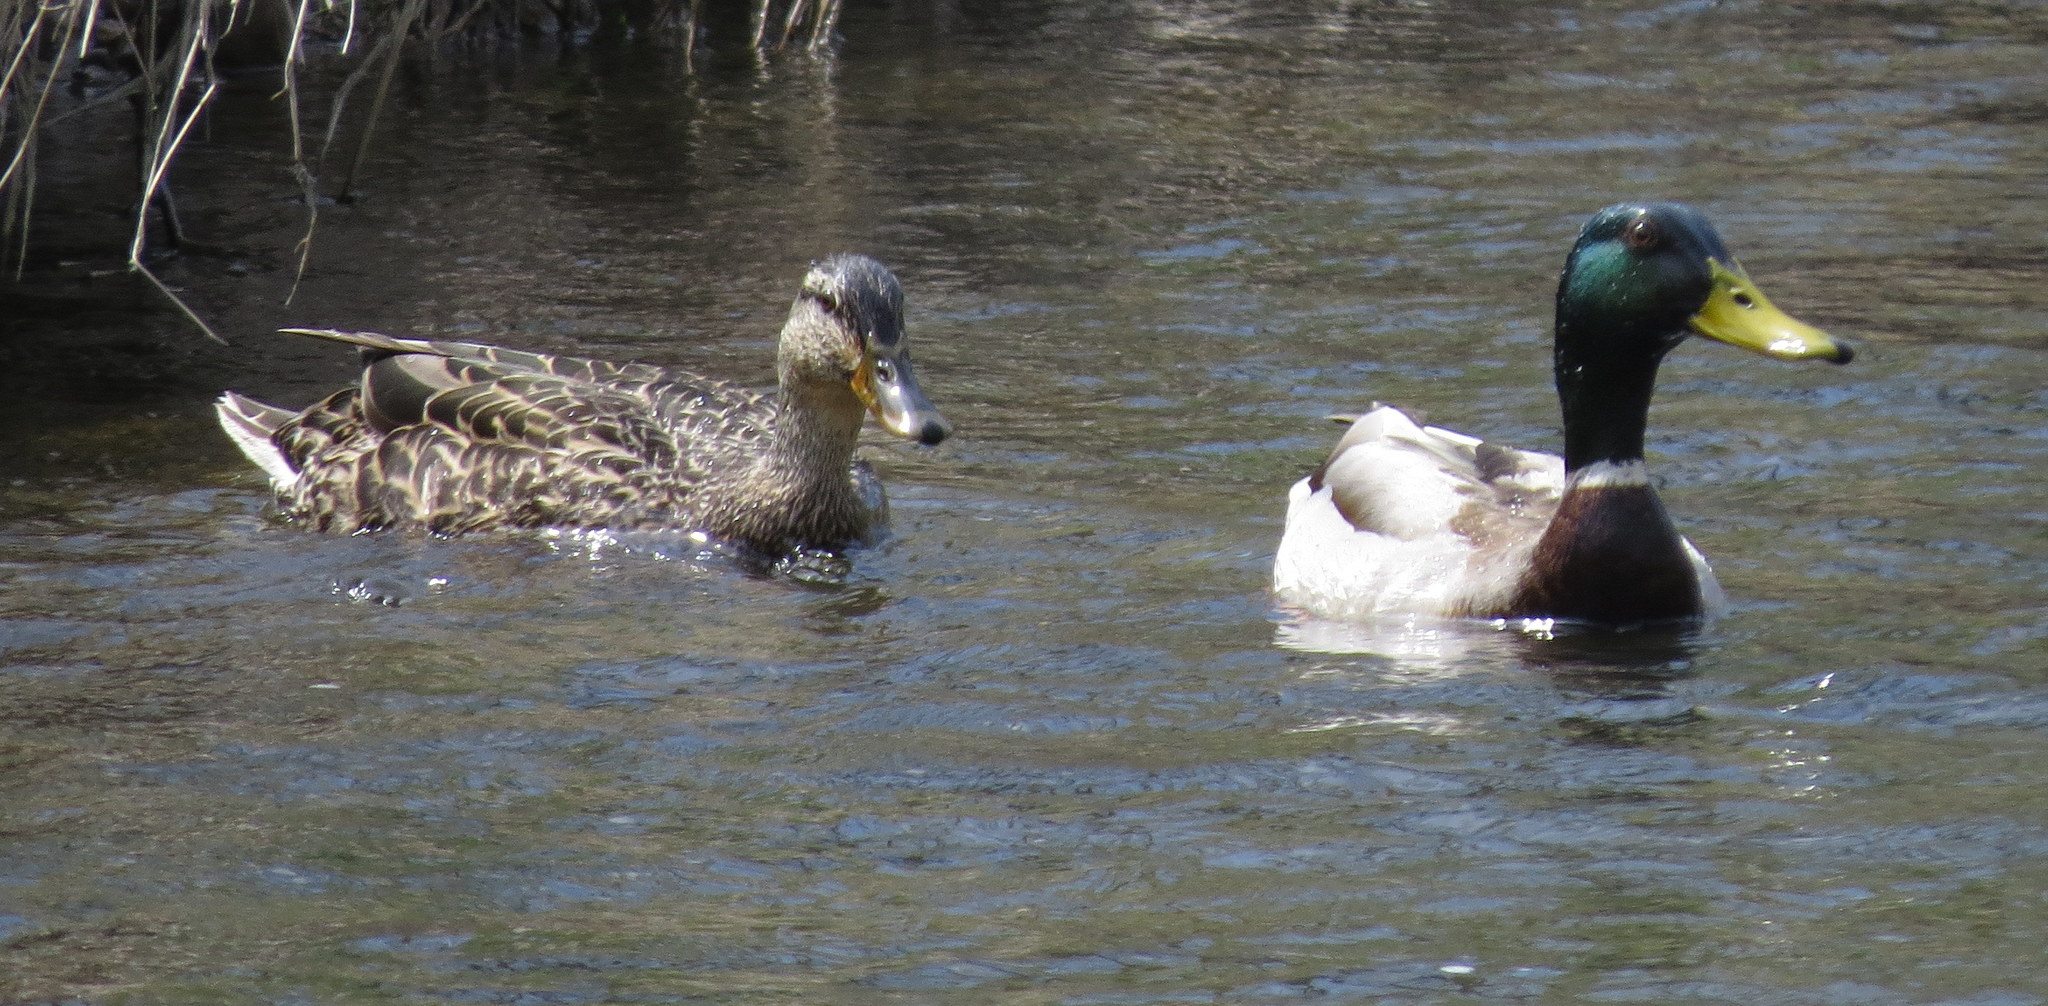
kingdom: Animalia
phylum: Chordata
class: Aves
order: Anseriformes
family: Anatidae
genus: Anas
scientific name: Anas platyrhynchos
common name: Mallard
